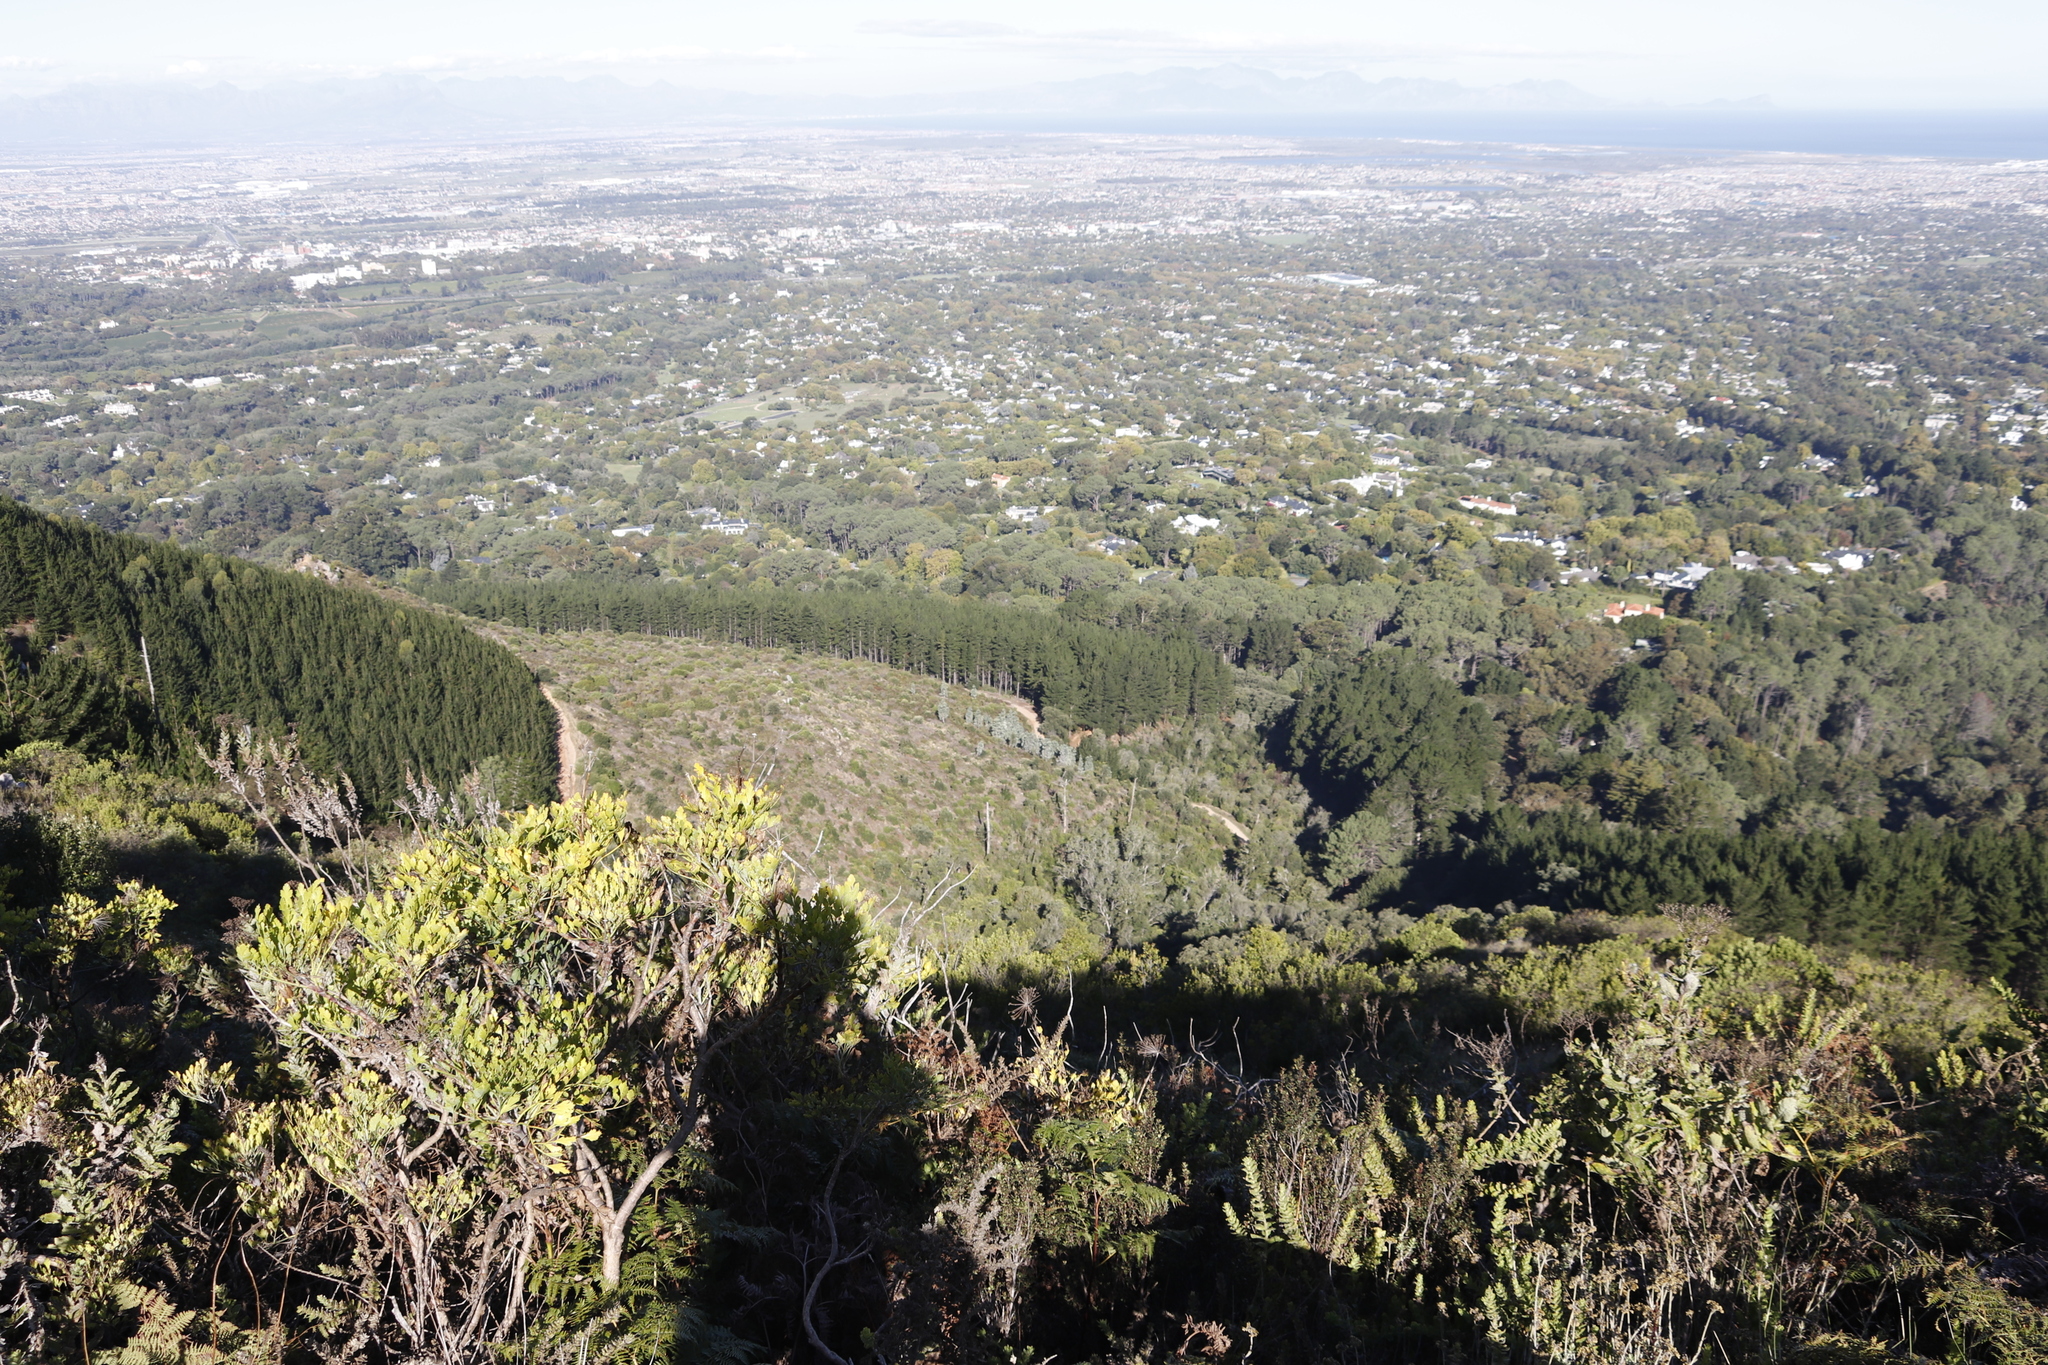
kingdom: Plantae
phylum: Tracheophyta
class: Magnoliopsida
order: Proteales
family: Proteaceae
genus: Leucadendron
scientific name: Leucadendron argenteum
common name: Cape silver tree
